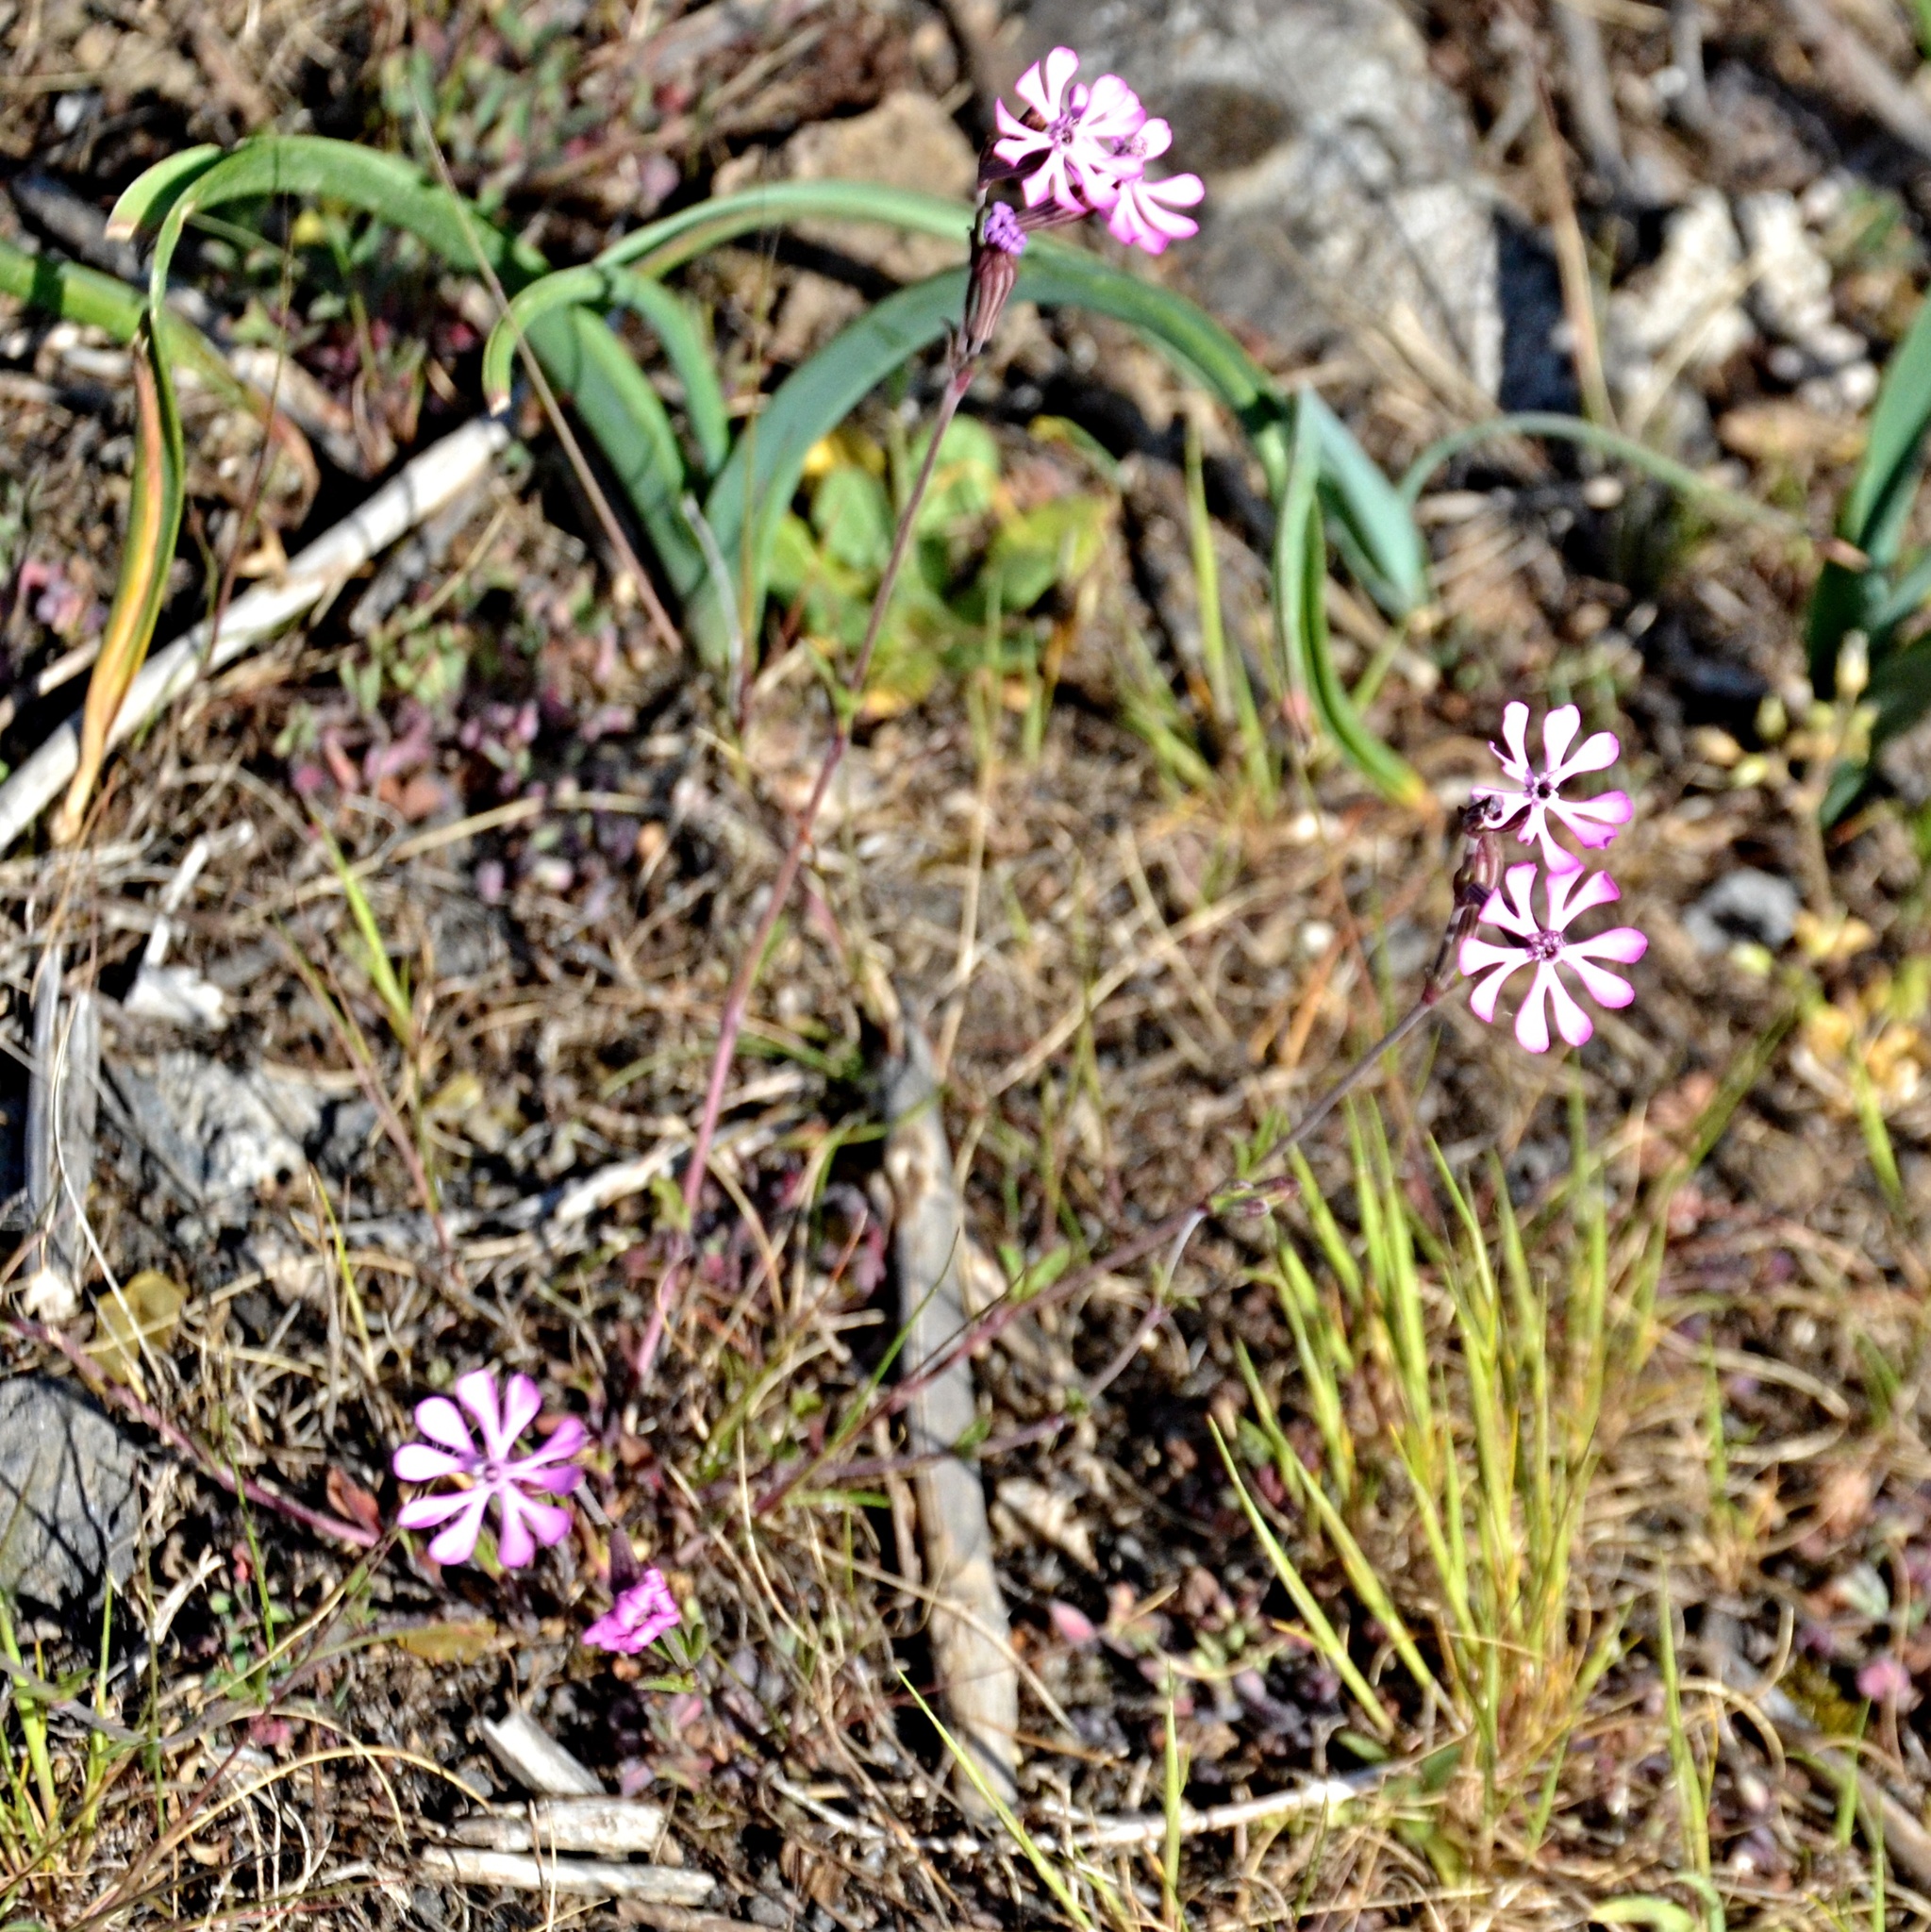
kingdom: Plantae
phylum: Tracheophyta
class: Magnoliopsida
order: Caryophyllales
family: Caryophyllaceae
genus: Silene
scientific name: Silene colorata
